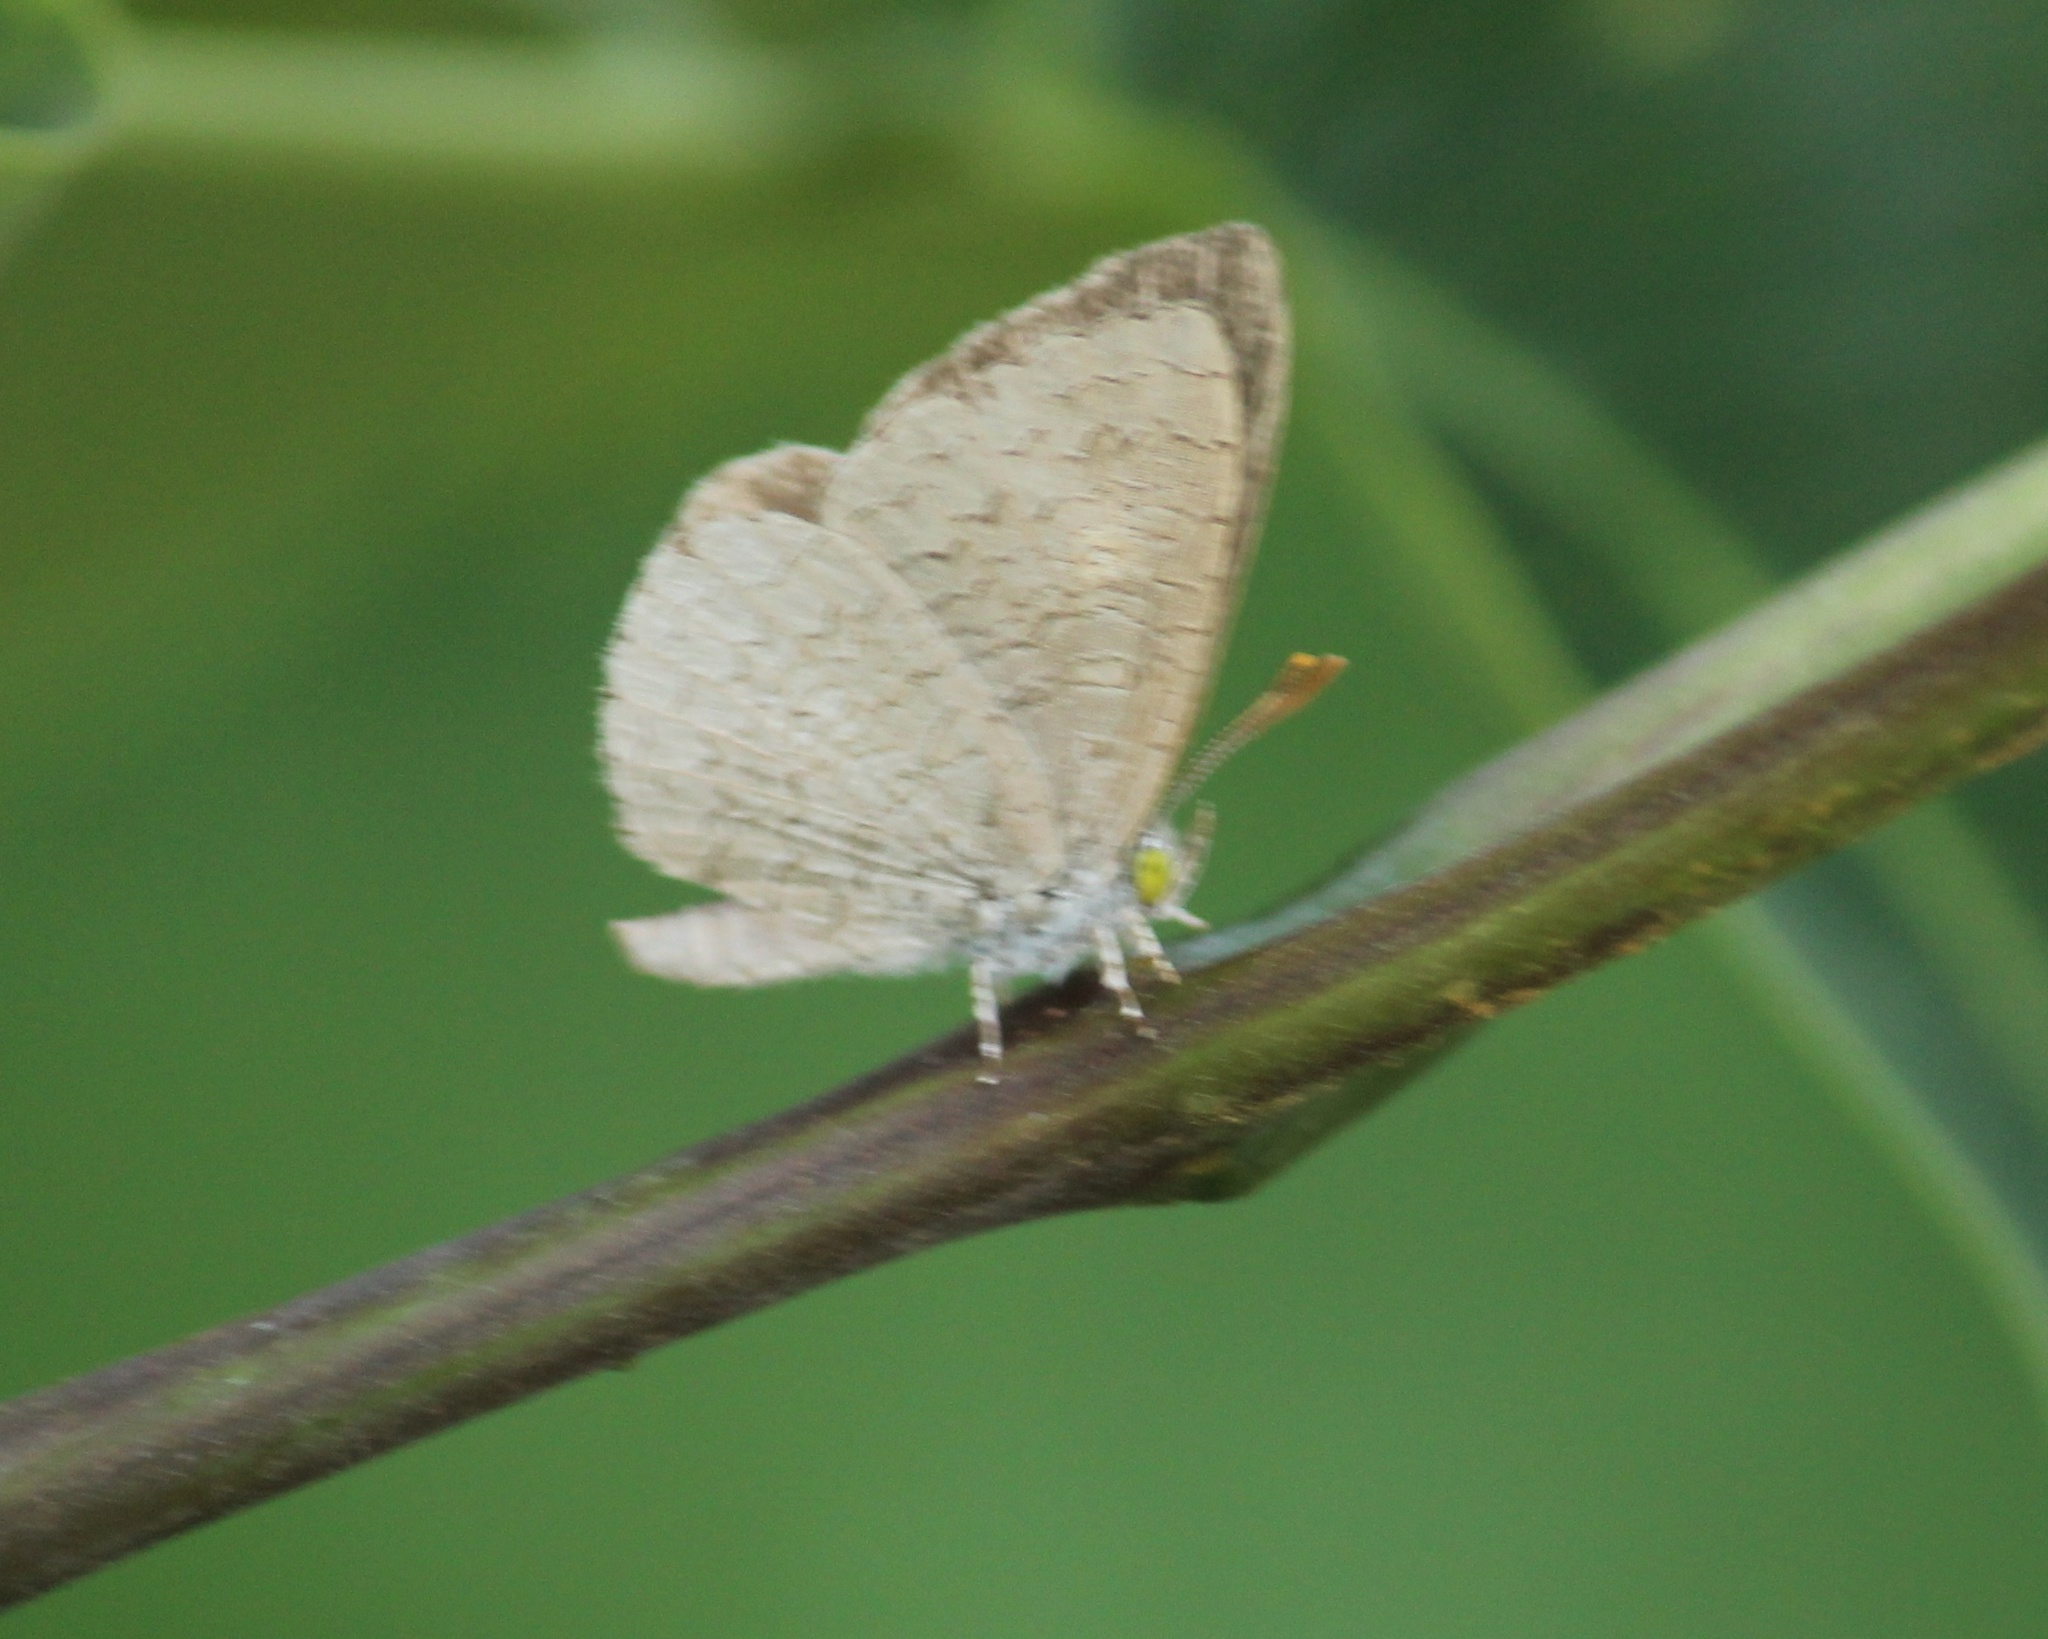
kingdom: Animalia
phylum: Arthropoda
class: Insecta
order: Lepidoptera
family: Lycaenidae
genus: Spalgis
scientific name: Spalgis epius
